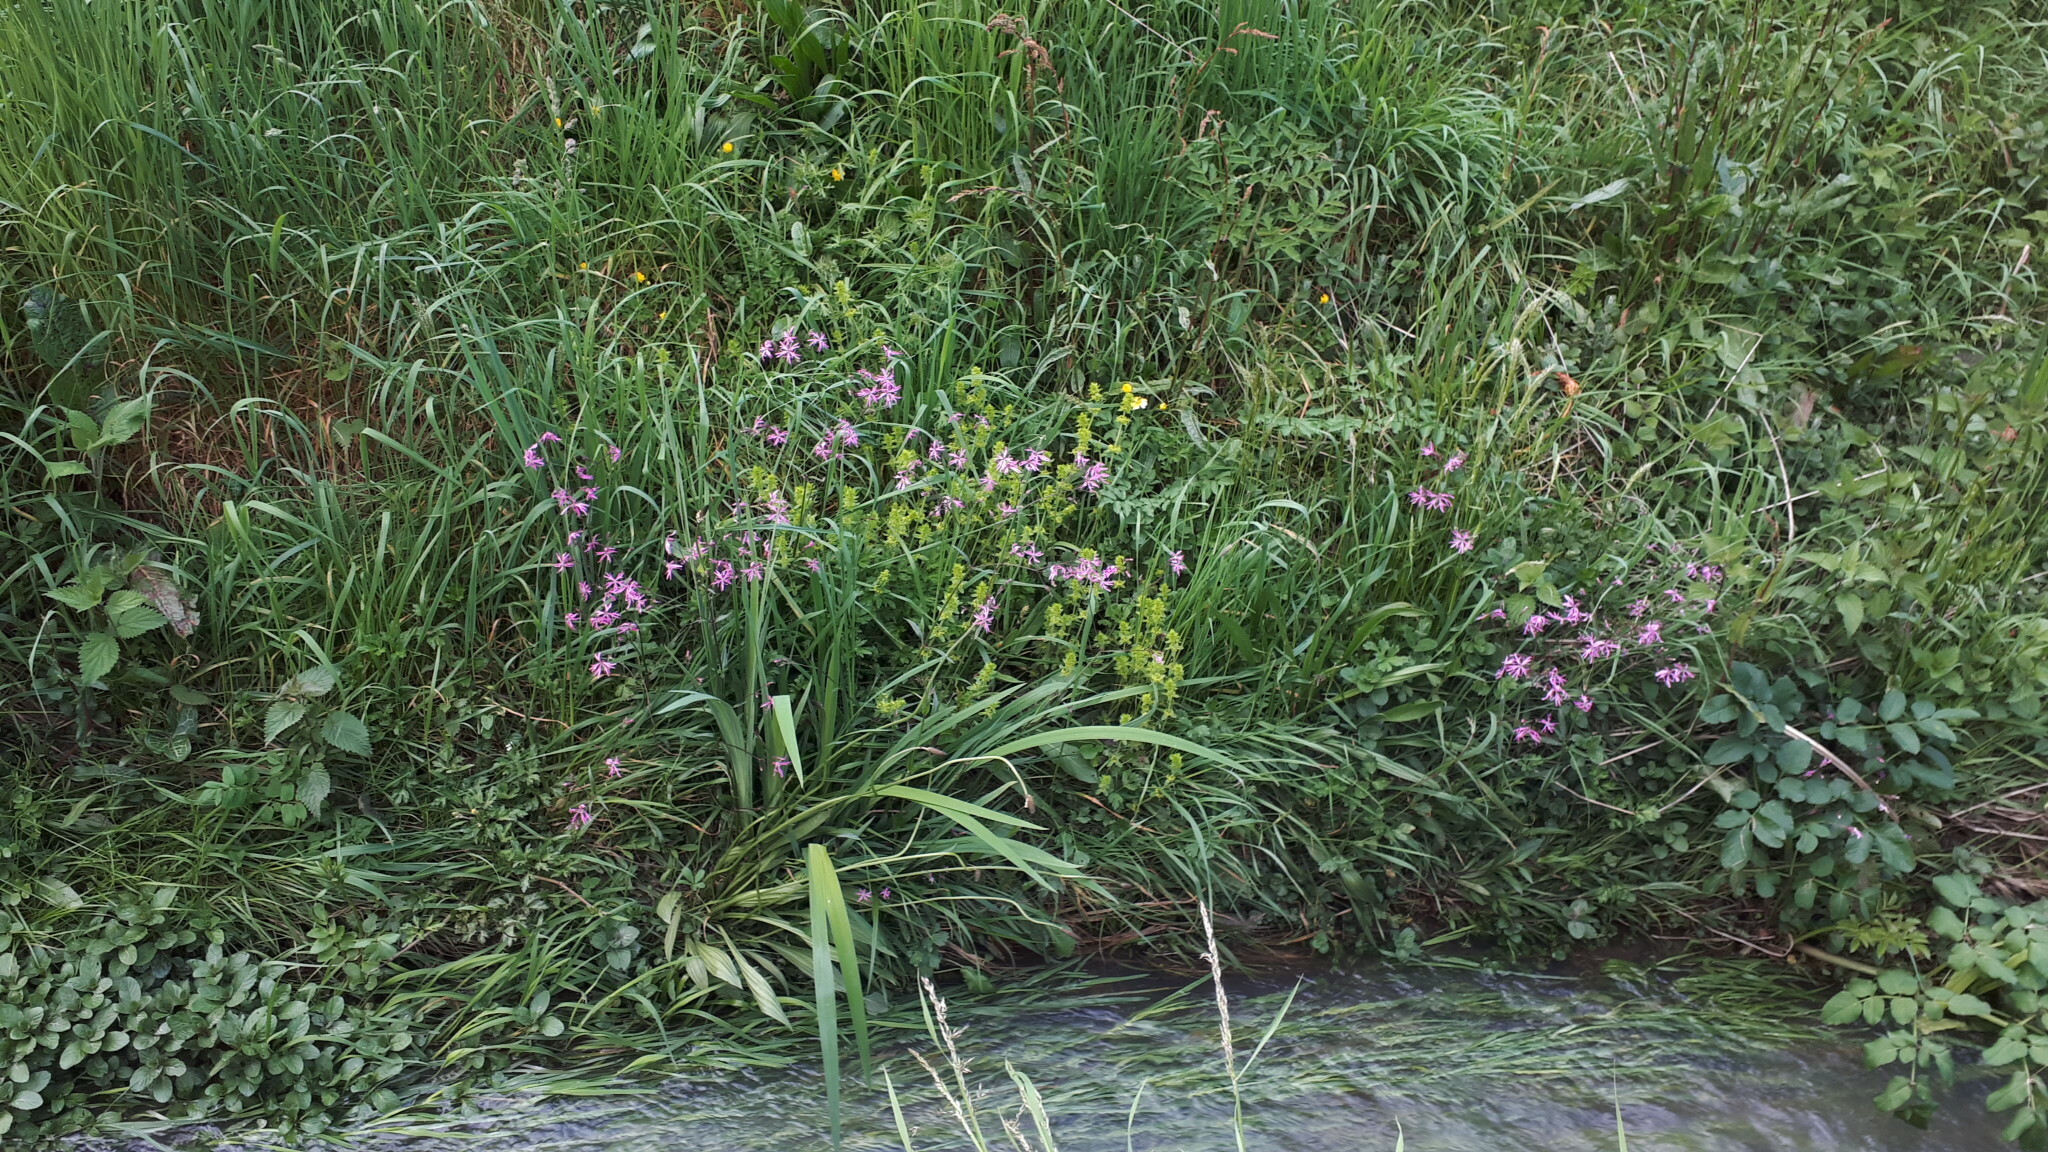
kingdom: Plantae
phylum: Tracheophyta
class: Magnoliopsida
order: Caryophyllales
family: Caryophyllaceae
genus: Silene
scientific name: Silene flos-cuculi
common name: Ragged-robin
